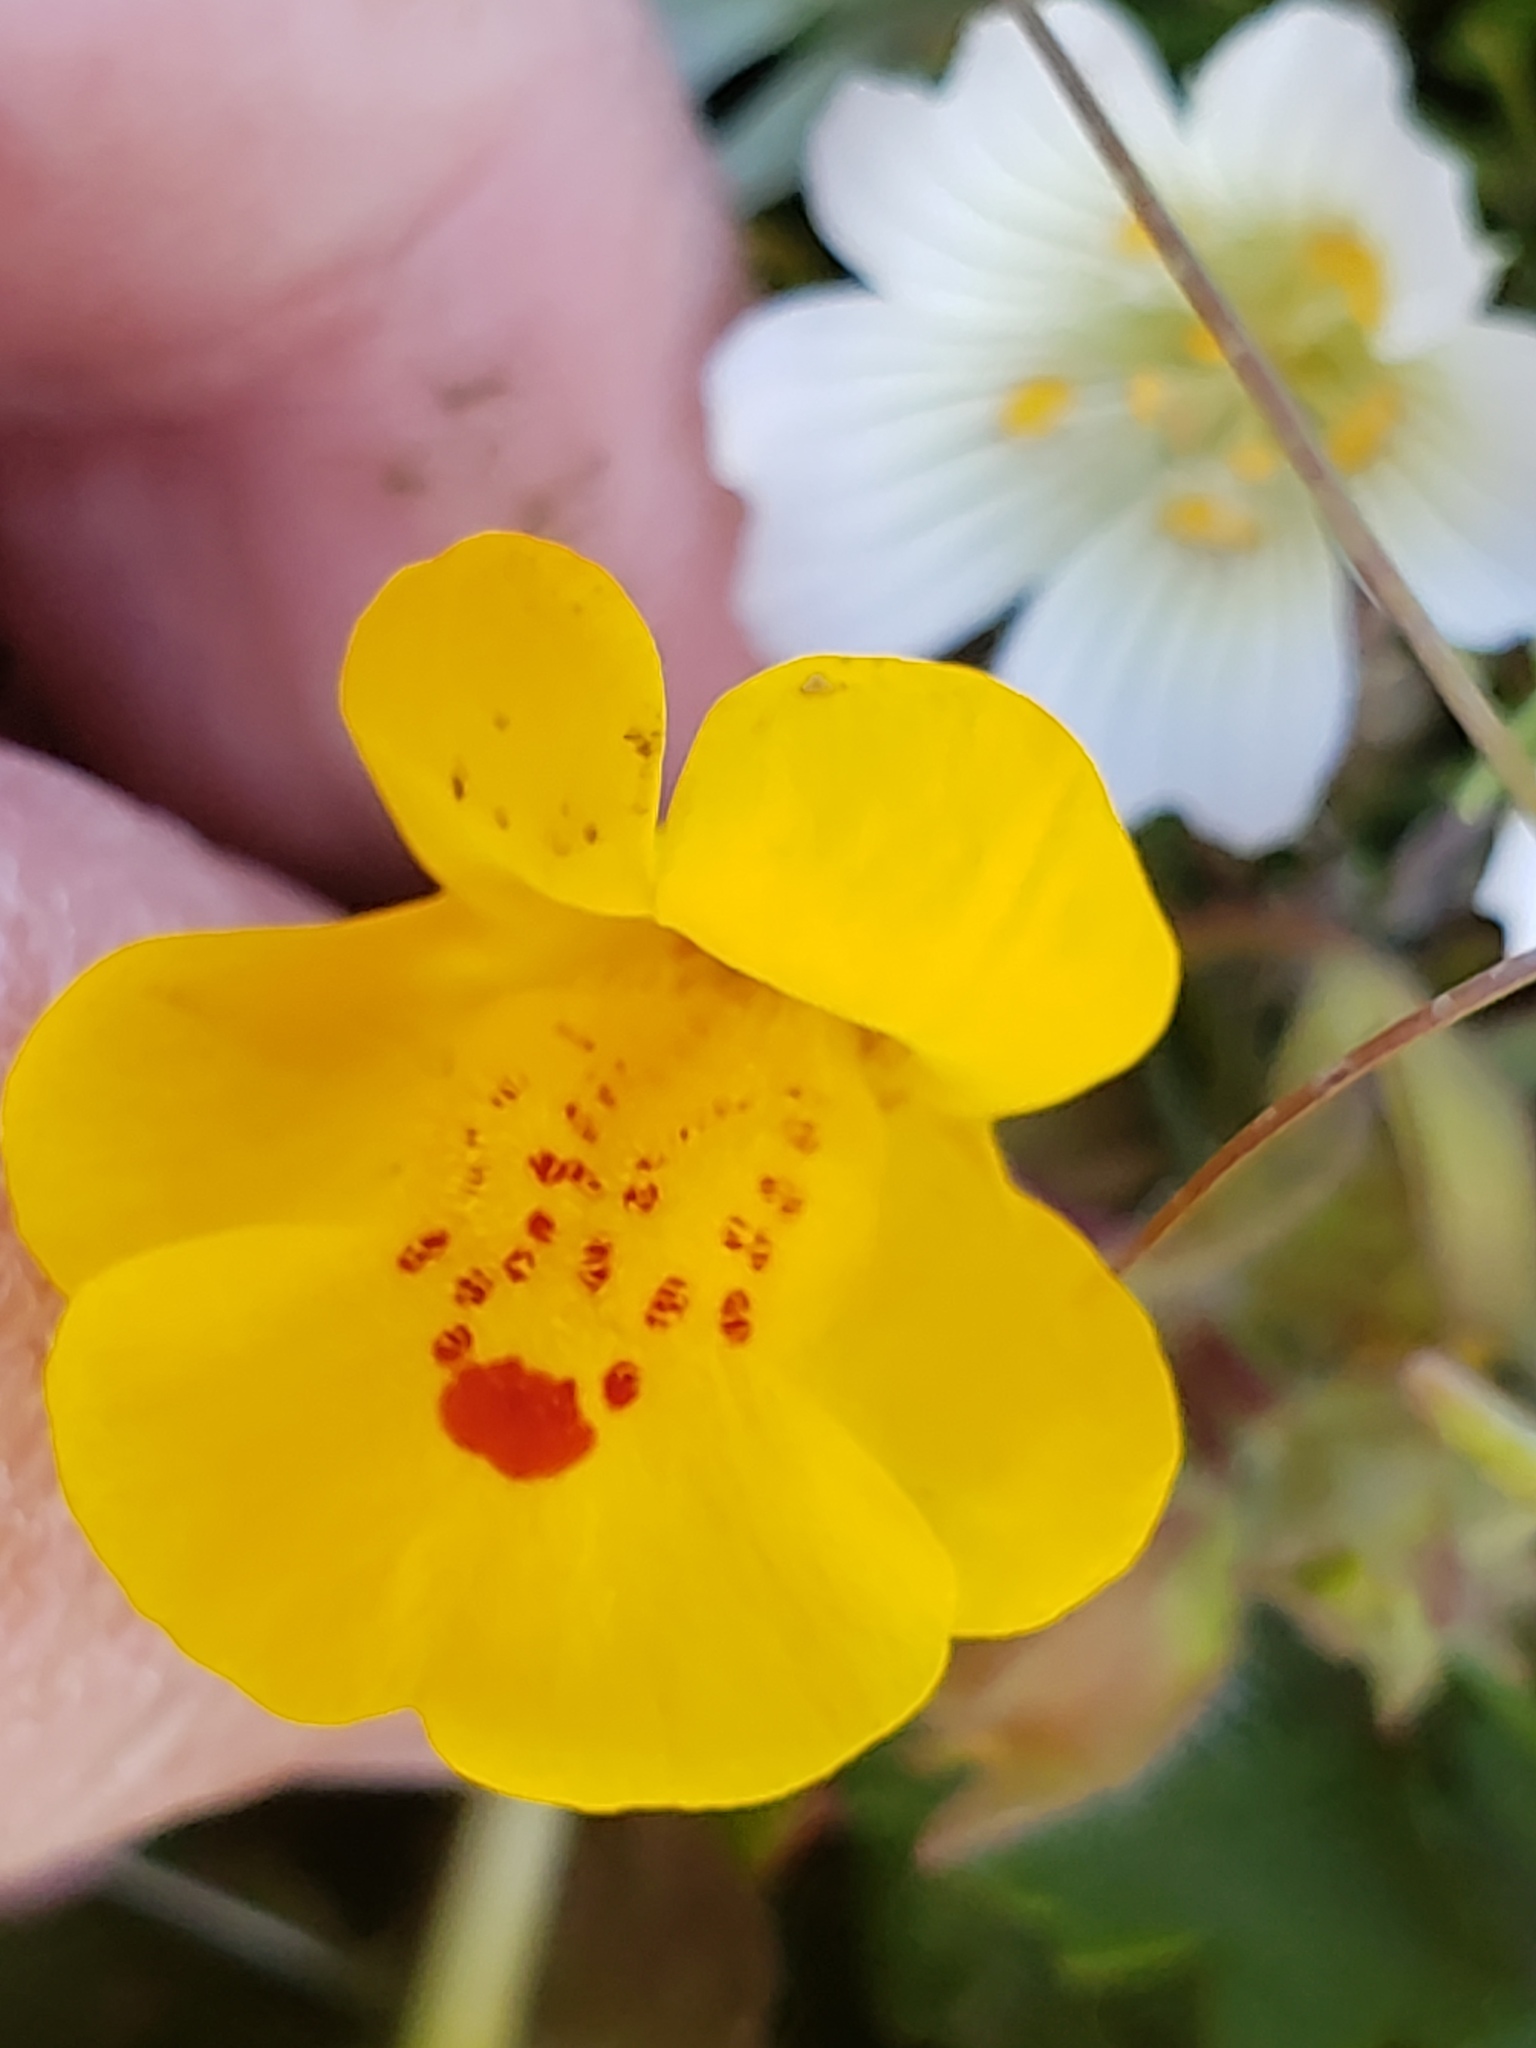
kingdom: Plantae
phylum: Tracheophyta
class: Magnoliopsida
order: Lamiales
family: Phrymaceae
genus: Erythranthe
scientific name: Erythranthe guttata
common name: Monkeyflower
